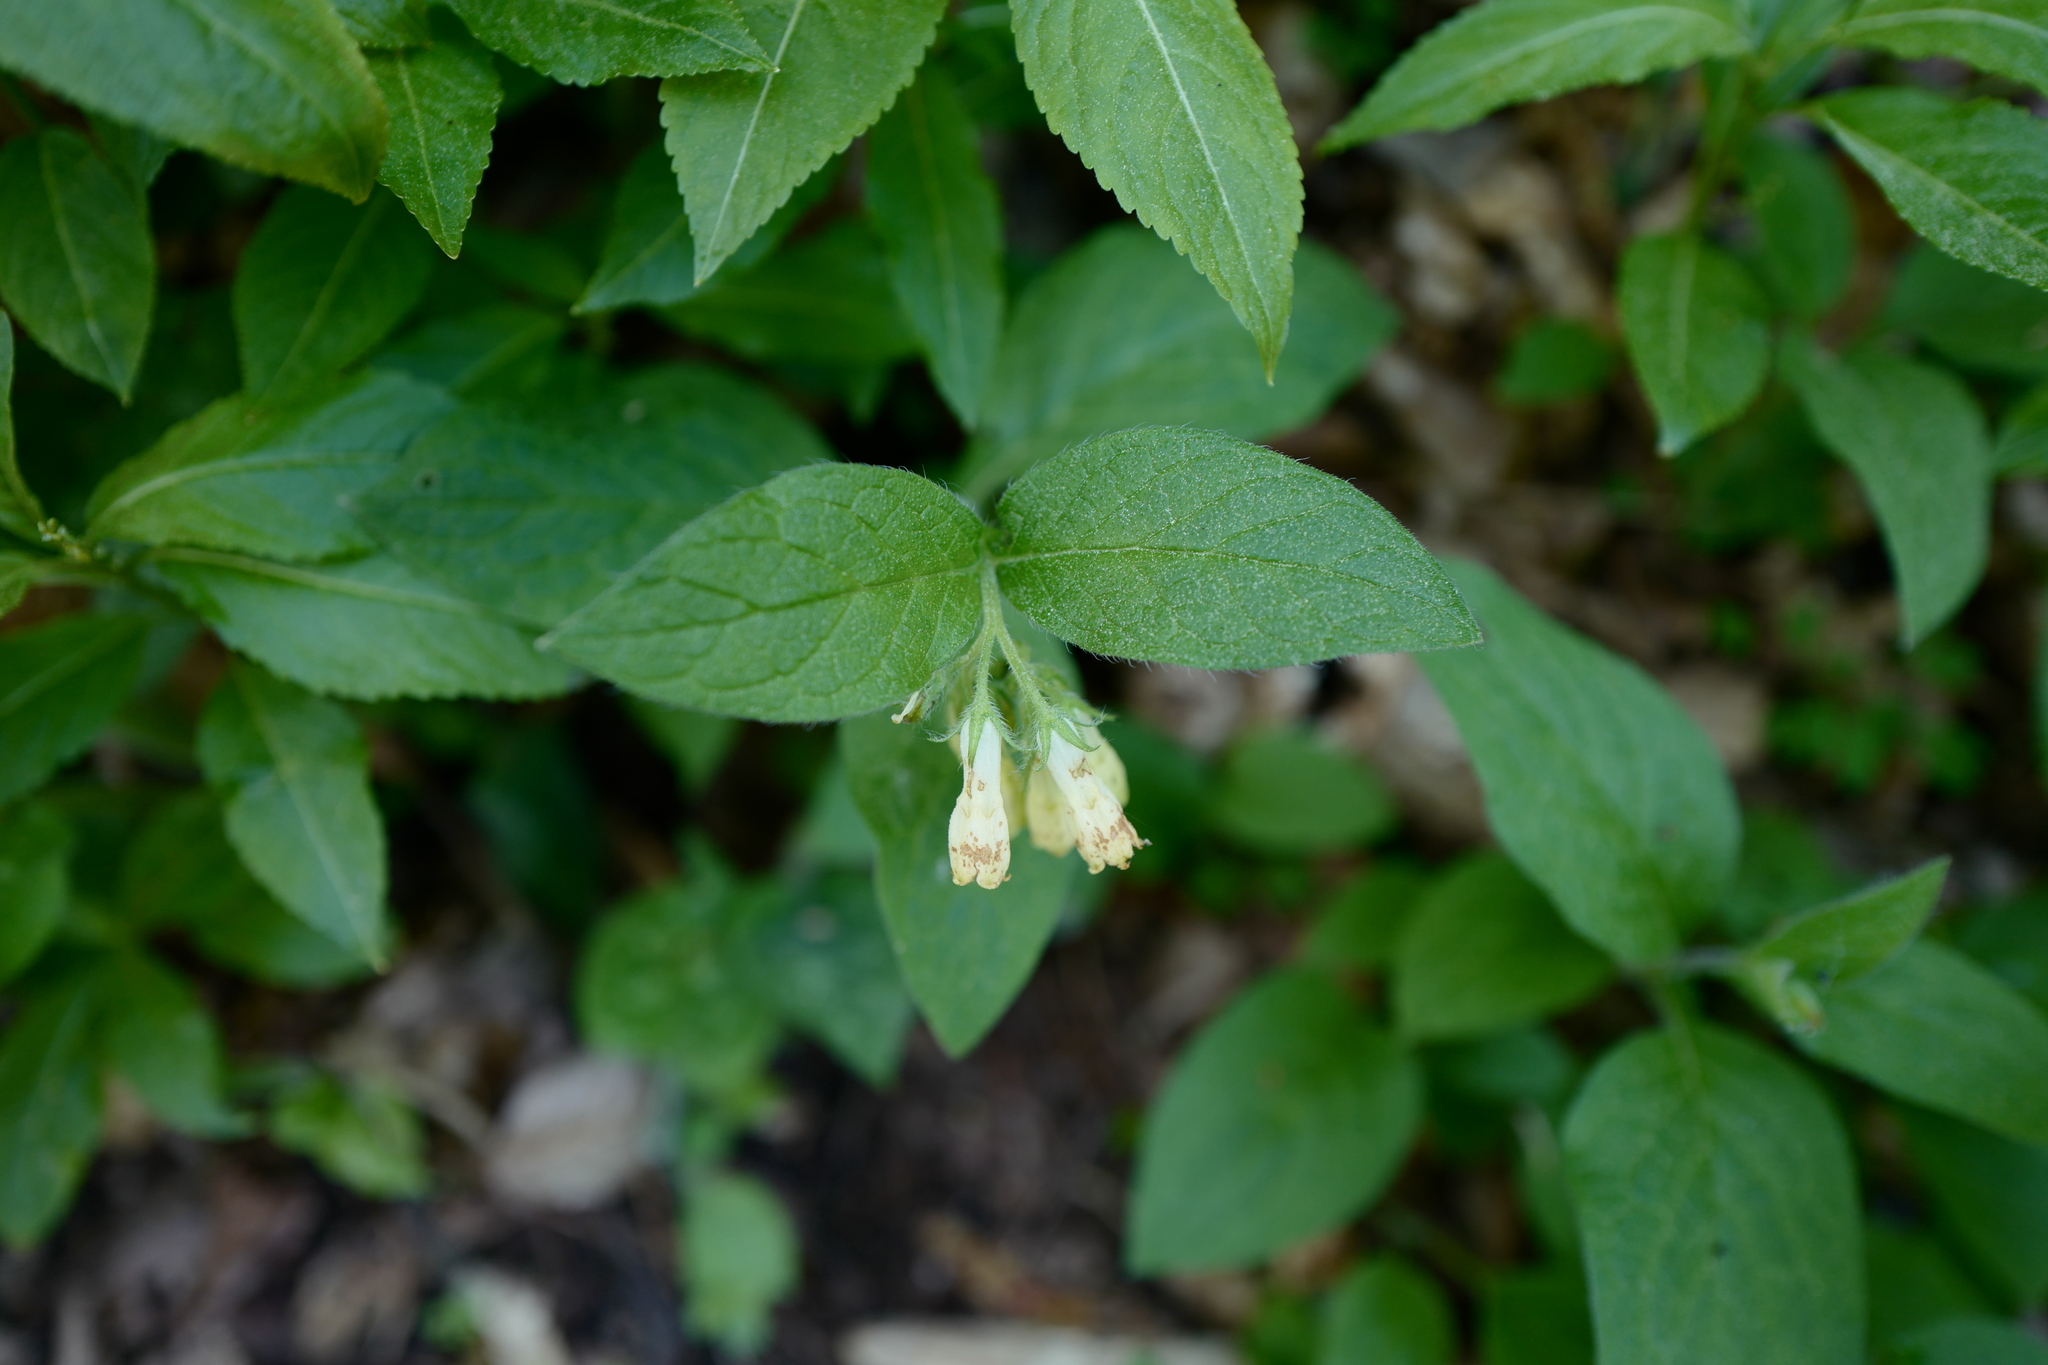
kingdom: Plantae
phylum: Tracheophyta
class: Magnoliopsida
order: Boraginales
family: Boraginaceae
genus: Symphytum
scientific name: Symphytum tuberosum
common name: Tuberous comfrey
